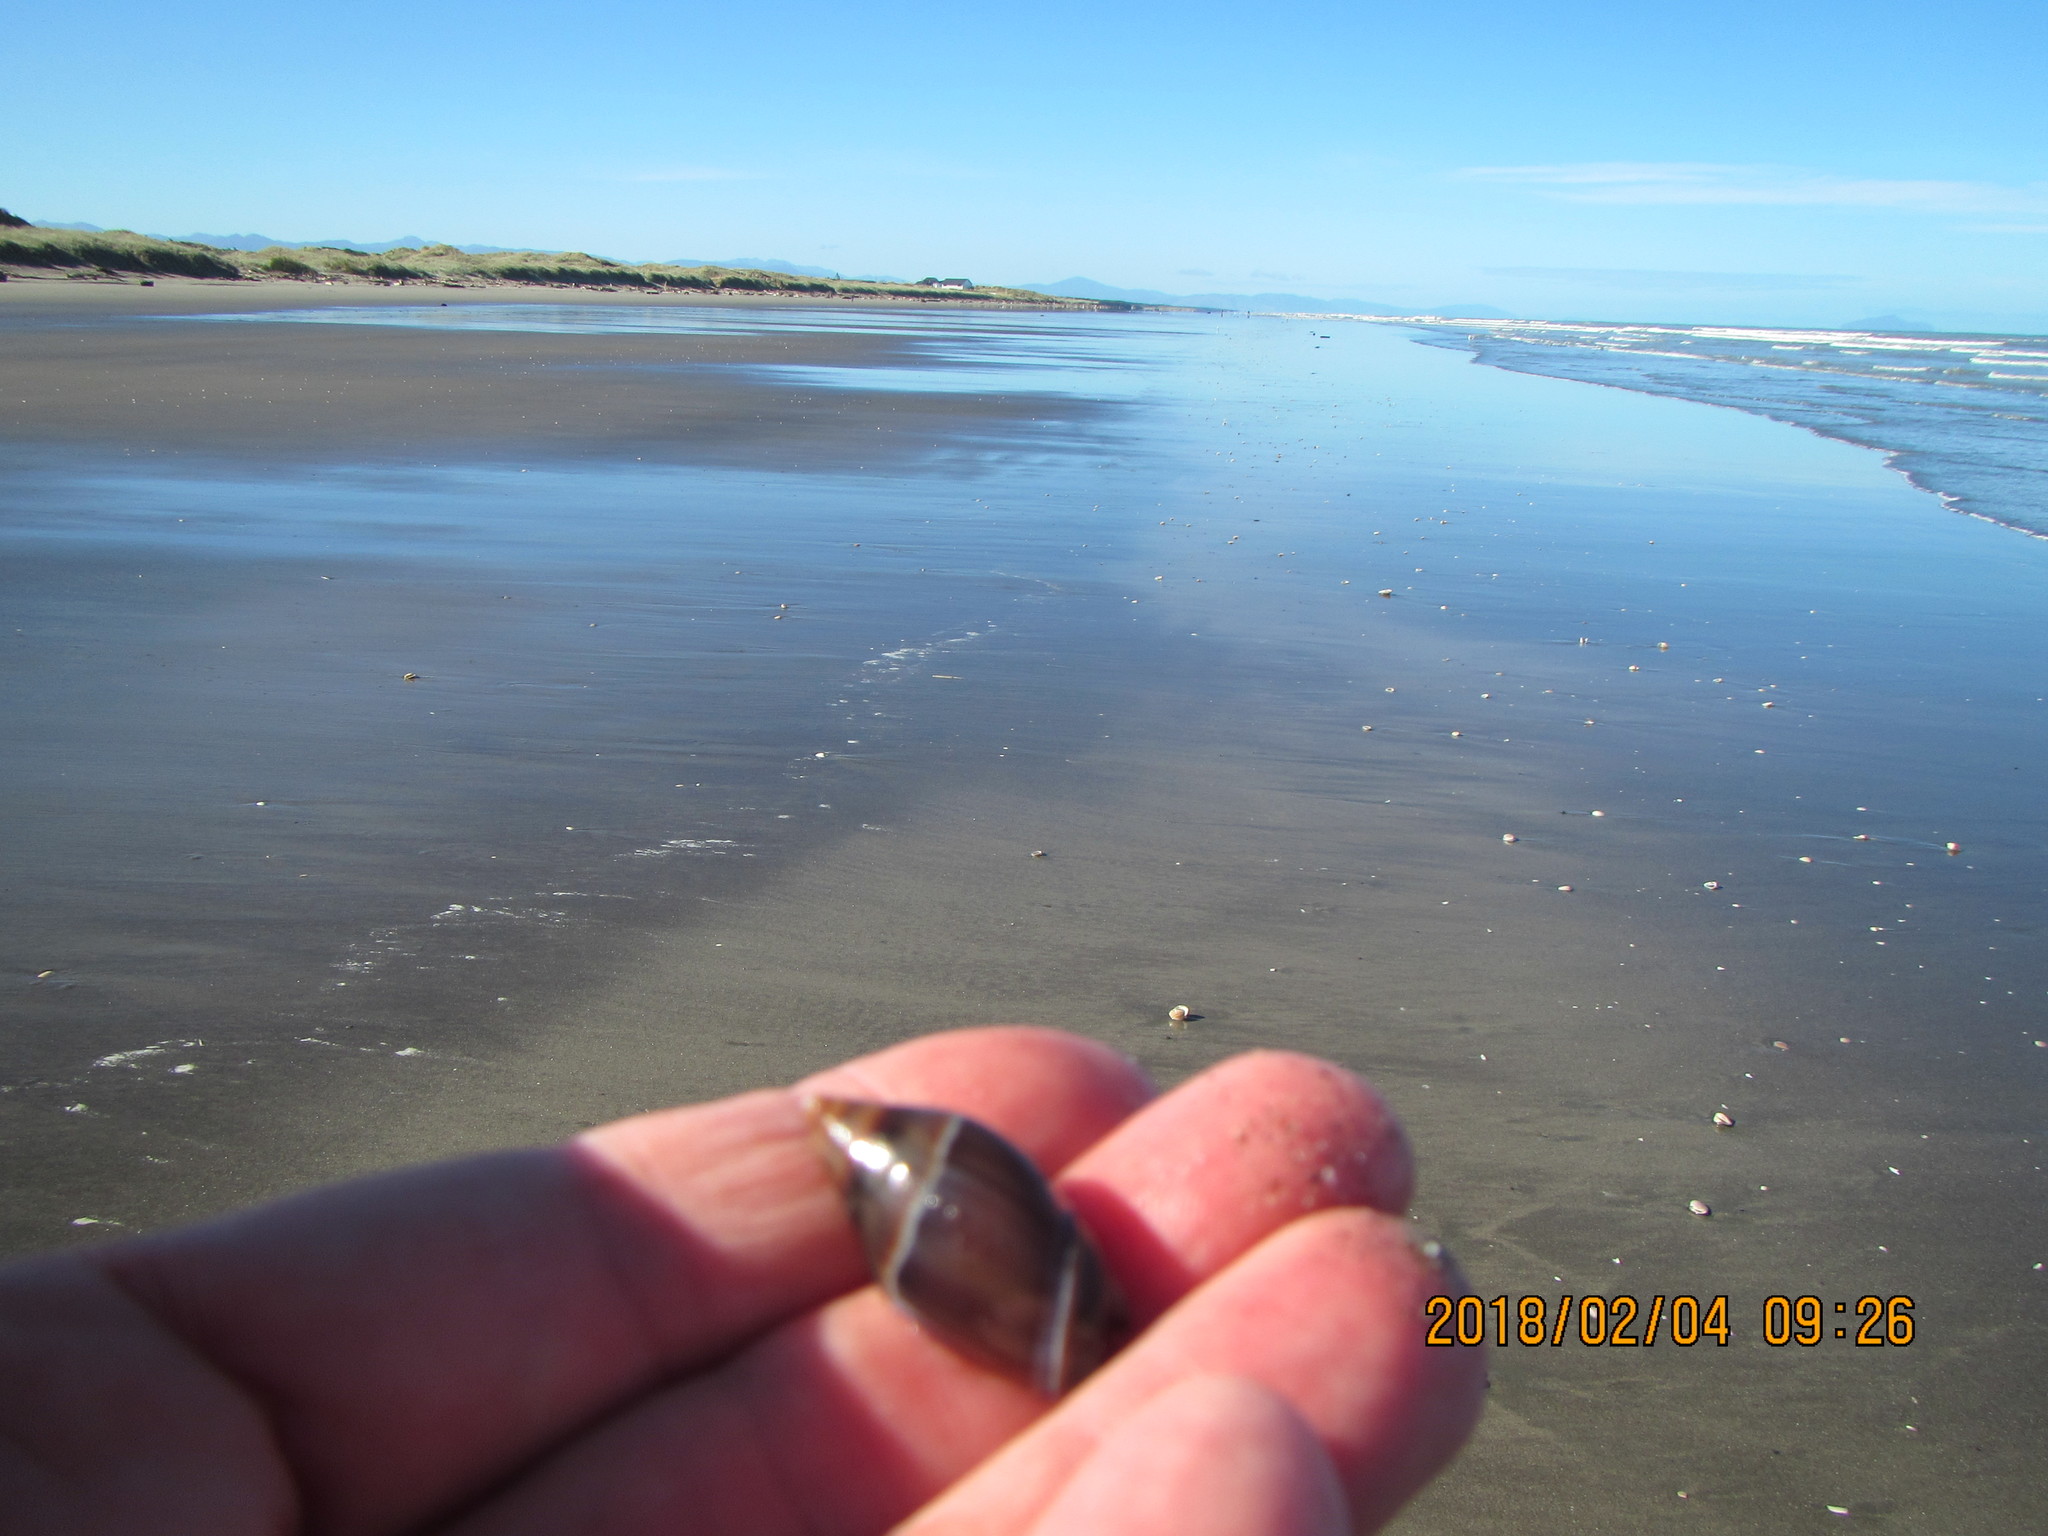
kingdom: Animalia
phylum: Mollusca
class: Gastropoda
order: Neogastropoda
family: Ancillariidae
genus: Amalda
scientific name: Amalda australis
